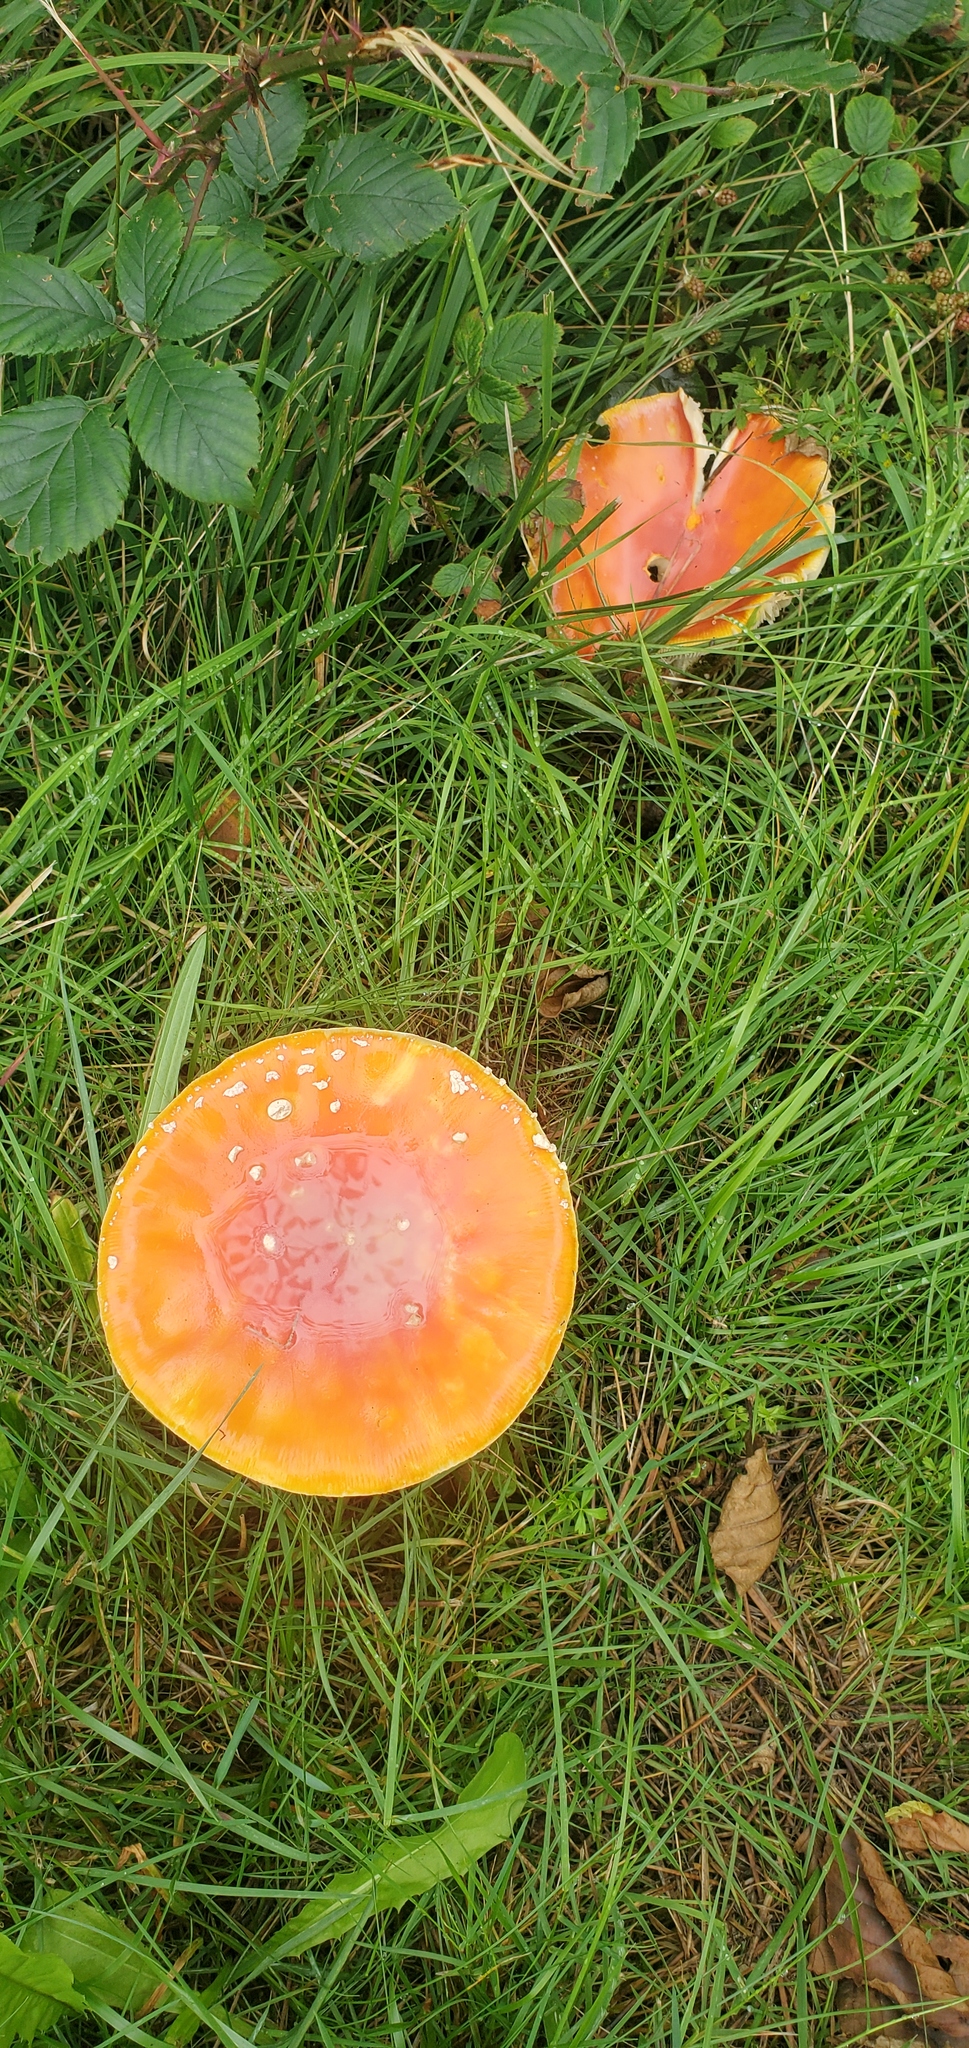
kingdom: Fungi
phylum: Basidiomycota
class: Agaricomycetes
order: Agaricales
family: Amanitaceae
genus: Amanita
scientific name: Amanita muscaria
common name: Fly agaric
